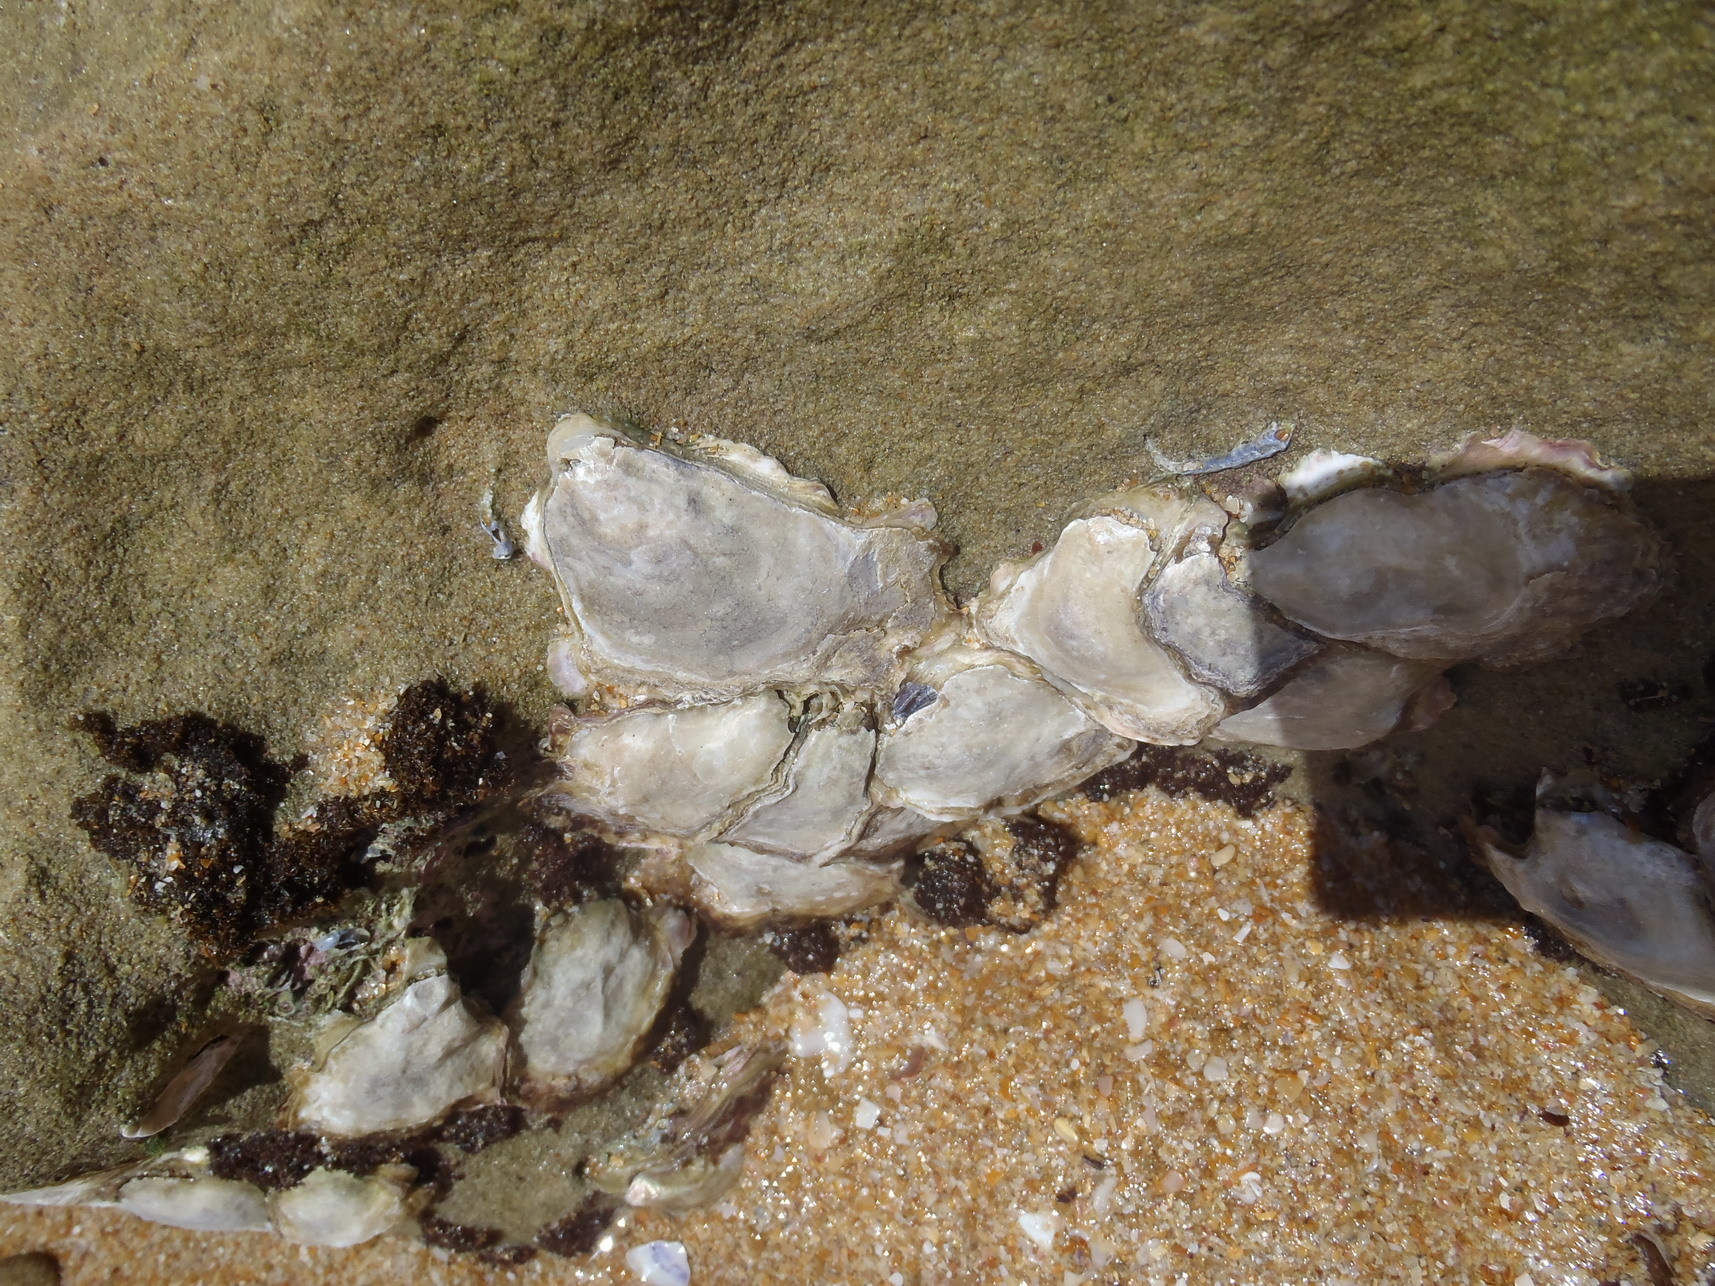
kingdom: Animalia
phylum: Mollusca
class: Bivalvia
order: Ostreida
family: Ostreidae
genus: Striostrea
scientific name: Striostrea margaritacea
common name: Cape rock oyster
